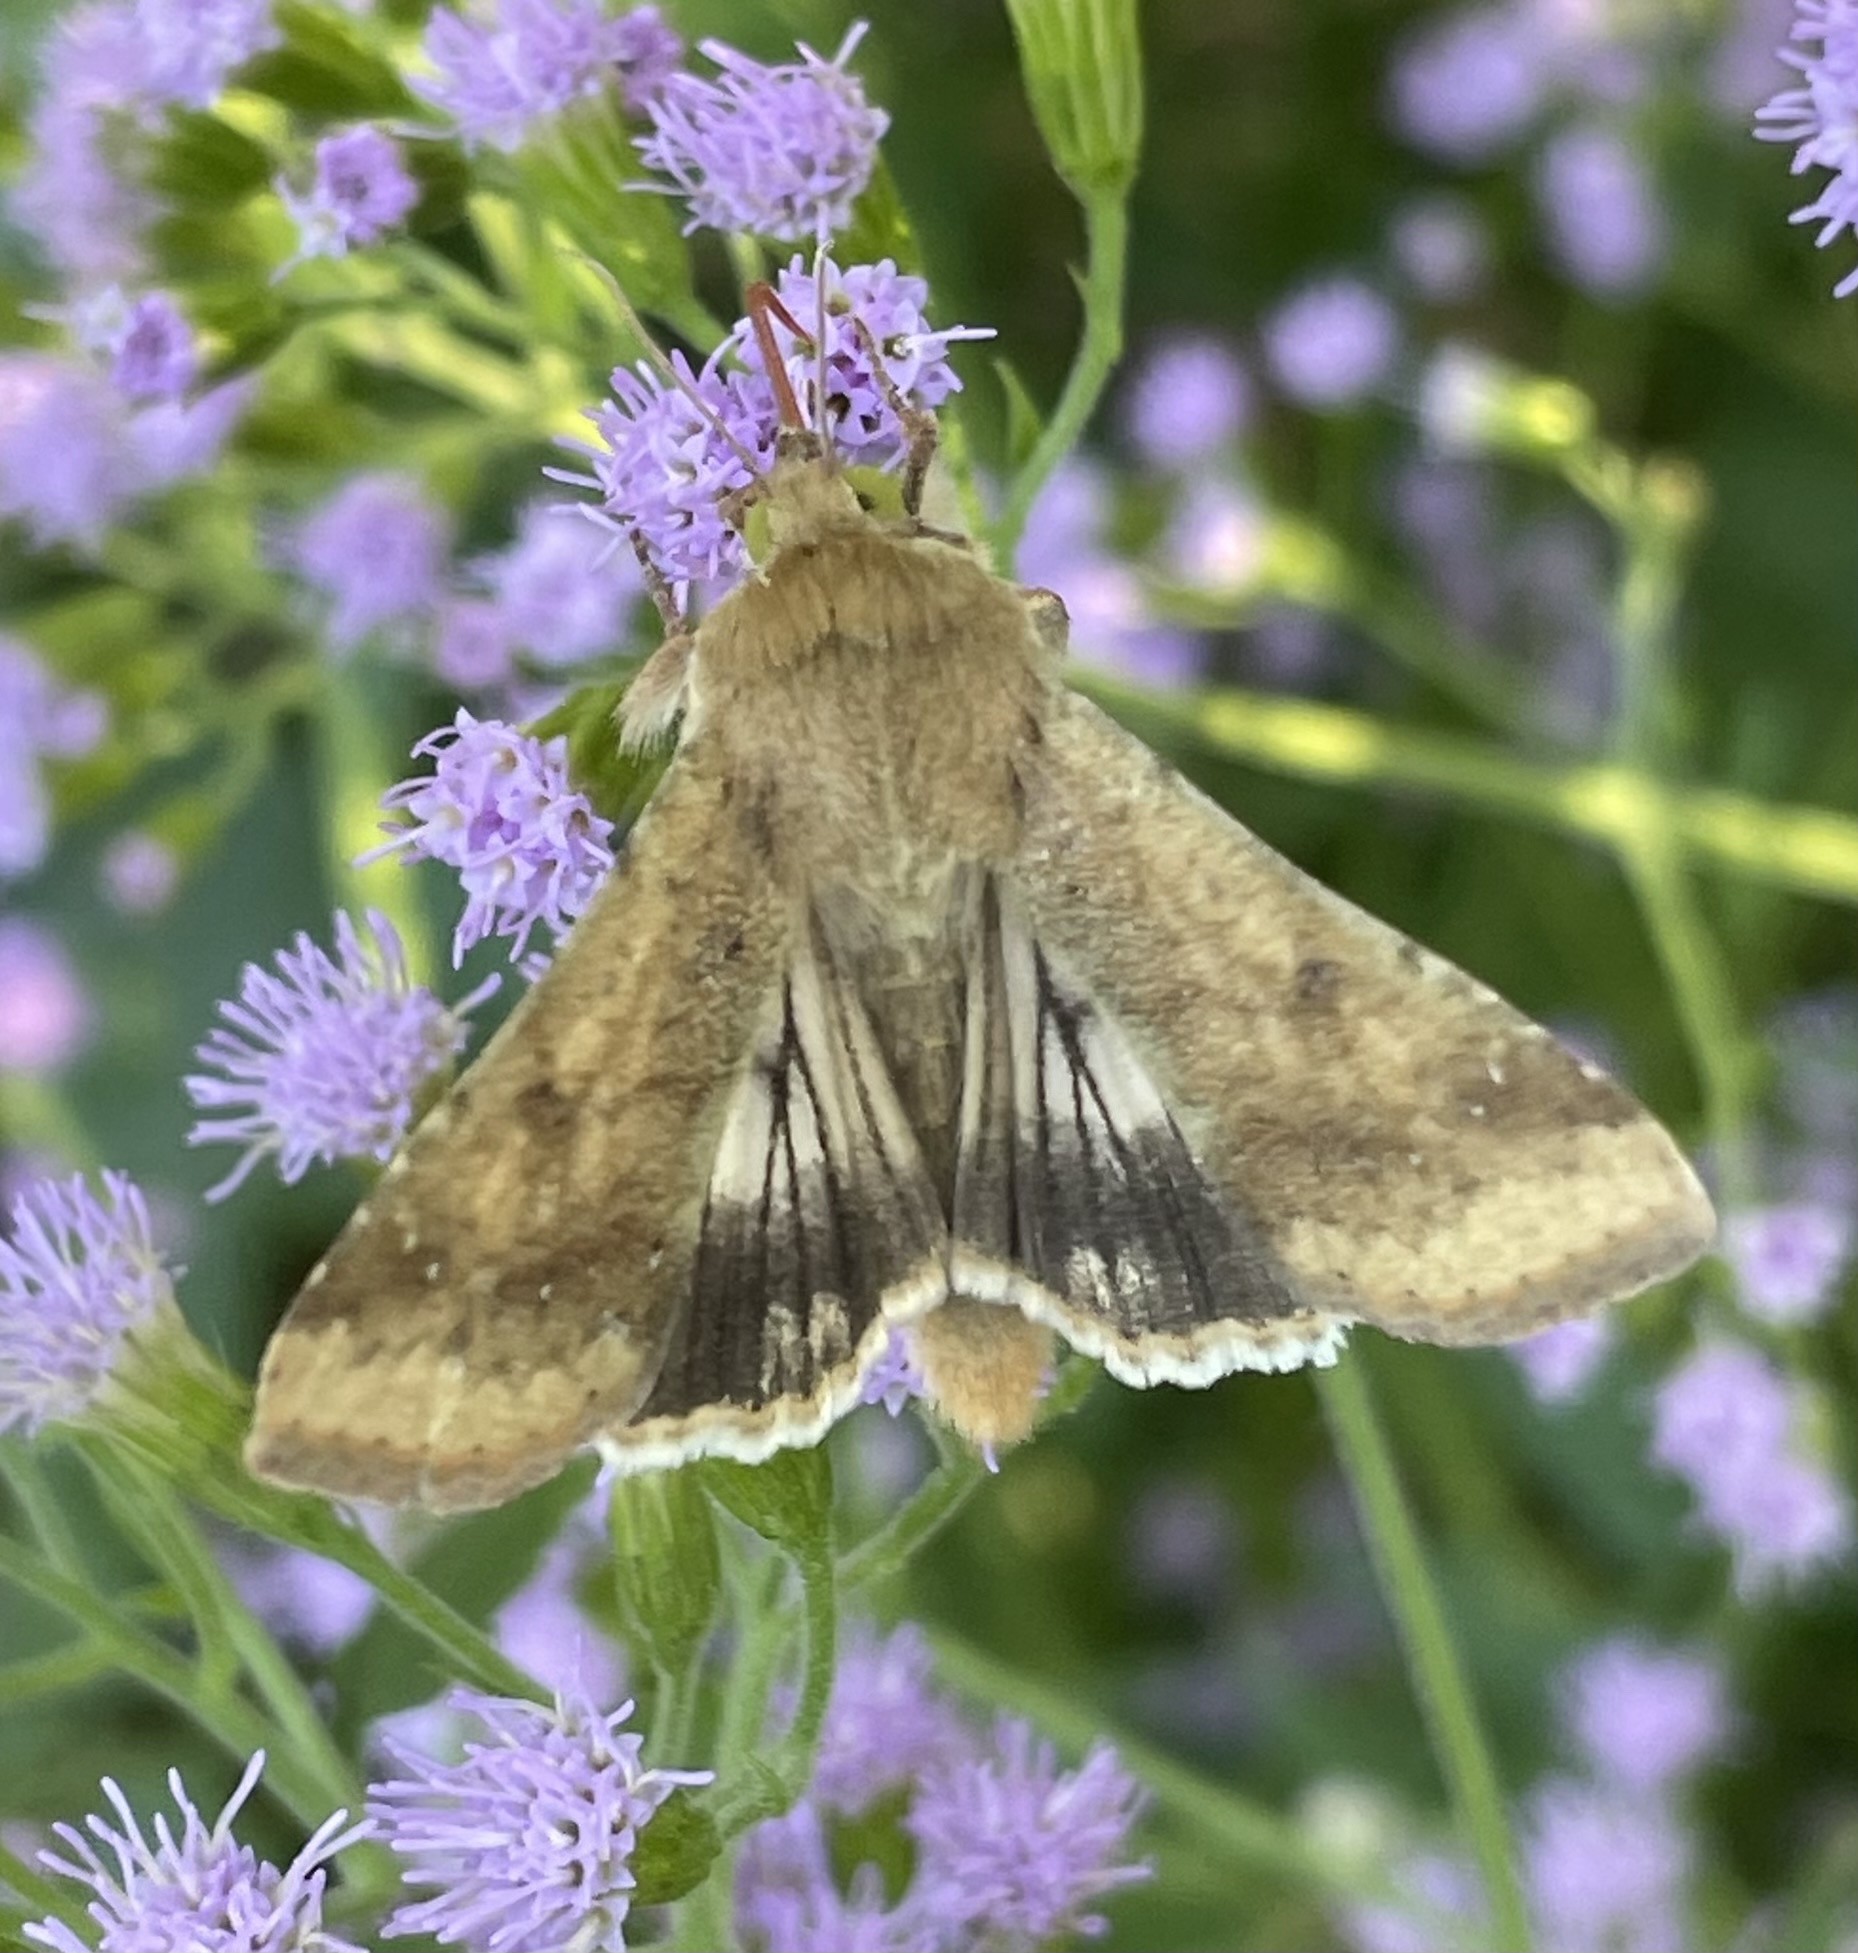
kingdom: Animalia
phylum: Arthropoda
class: Insecta
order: Lepidoptera
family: Noctuidae
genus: Helicoverpa
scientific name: Helicoverpa zea
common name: Bollworm
